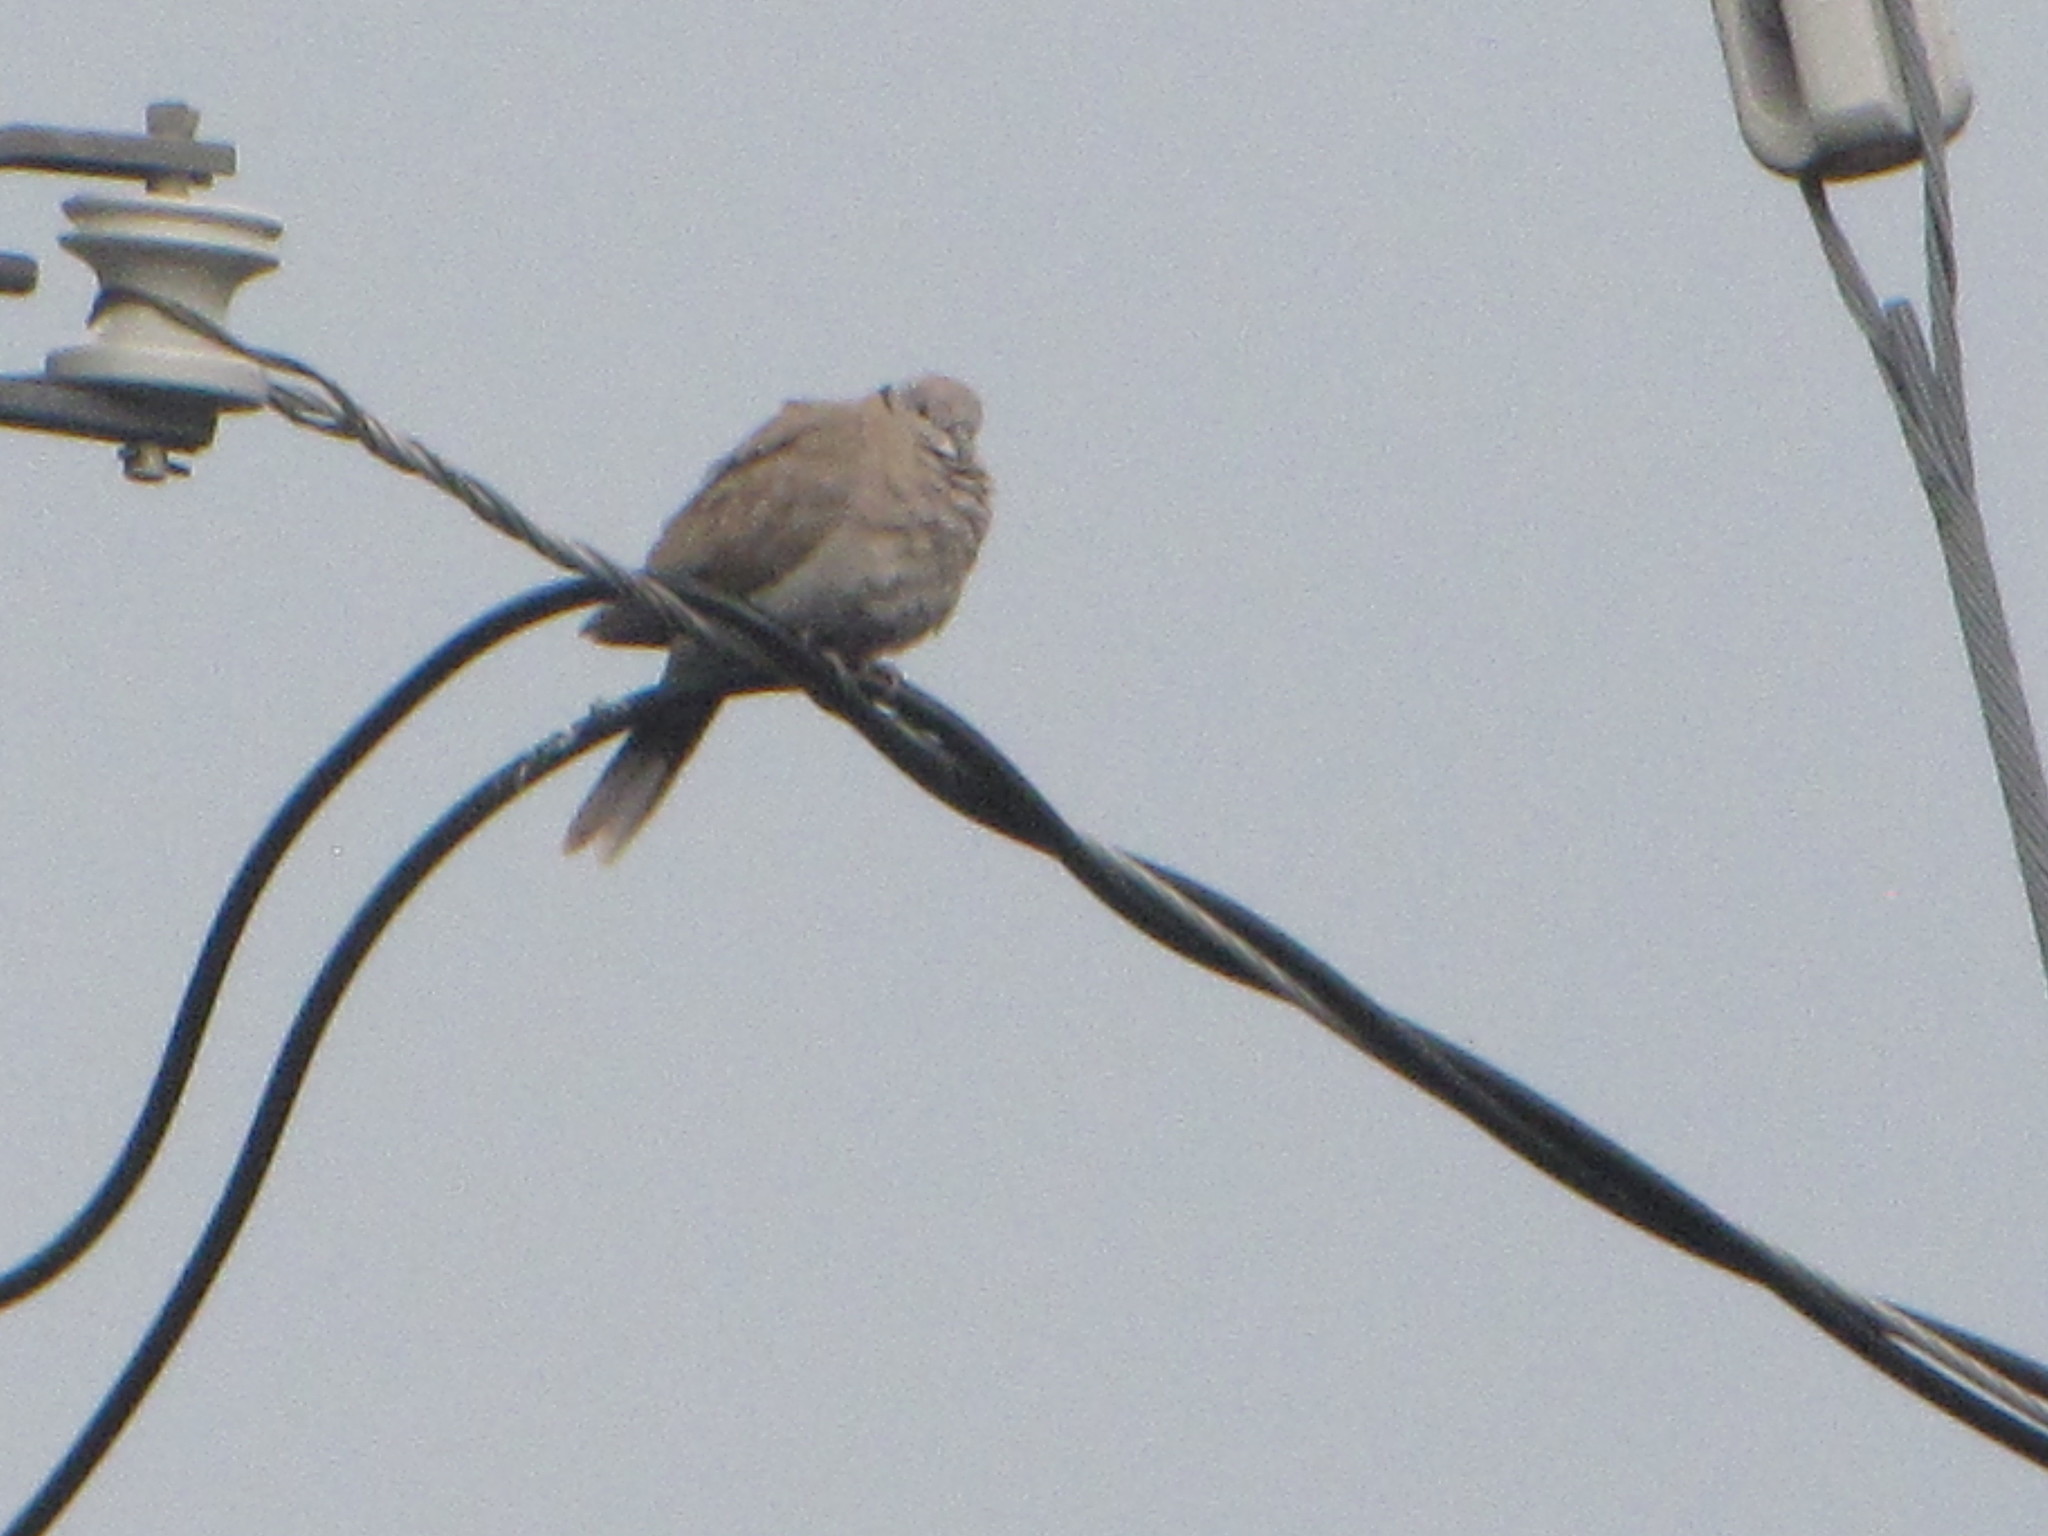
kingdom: Animalia
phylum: Chordata
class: Aves
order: Columbiformes
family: Columbidae
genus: Streptopelia
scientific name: Streptopelia decaocto
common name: Eurasian collared dove
